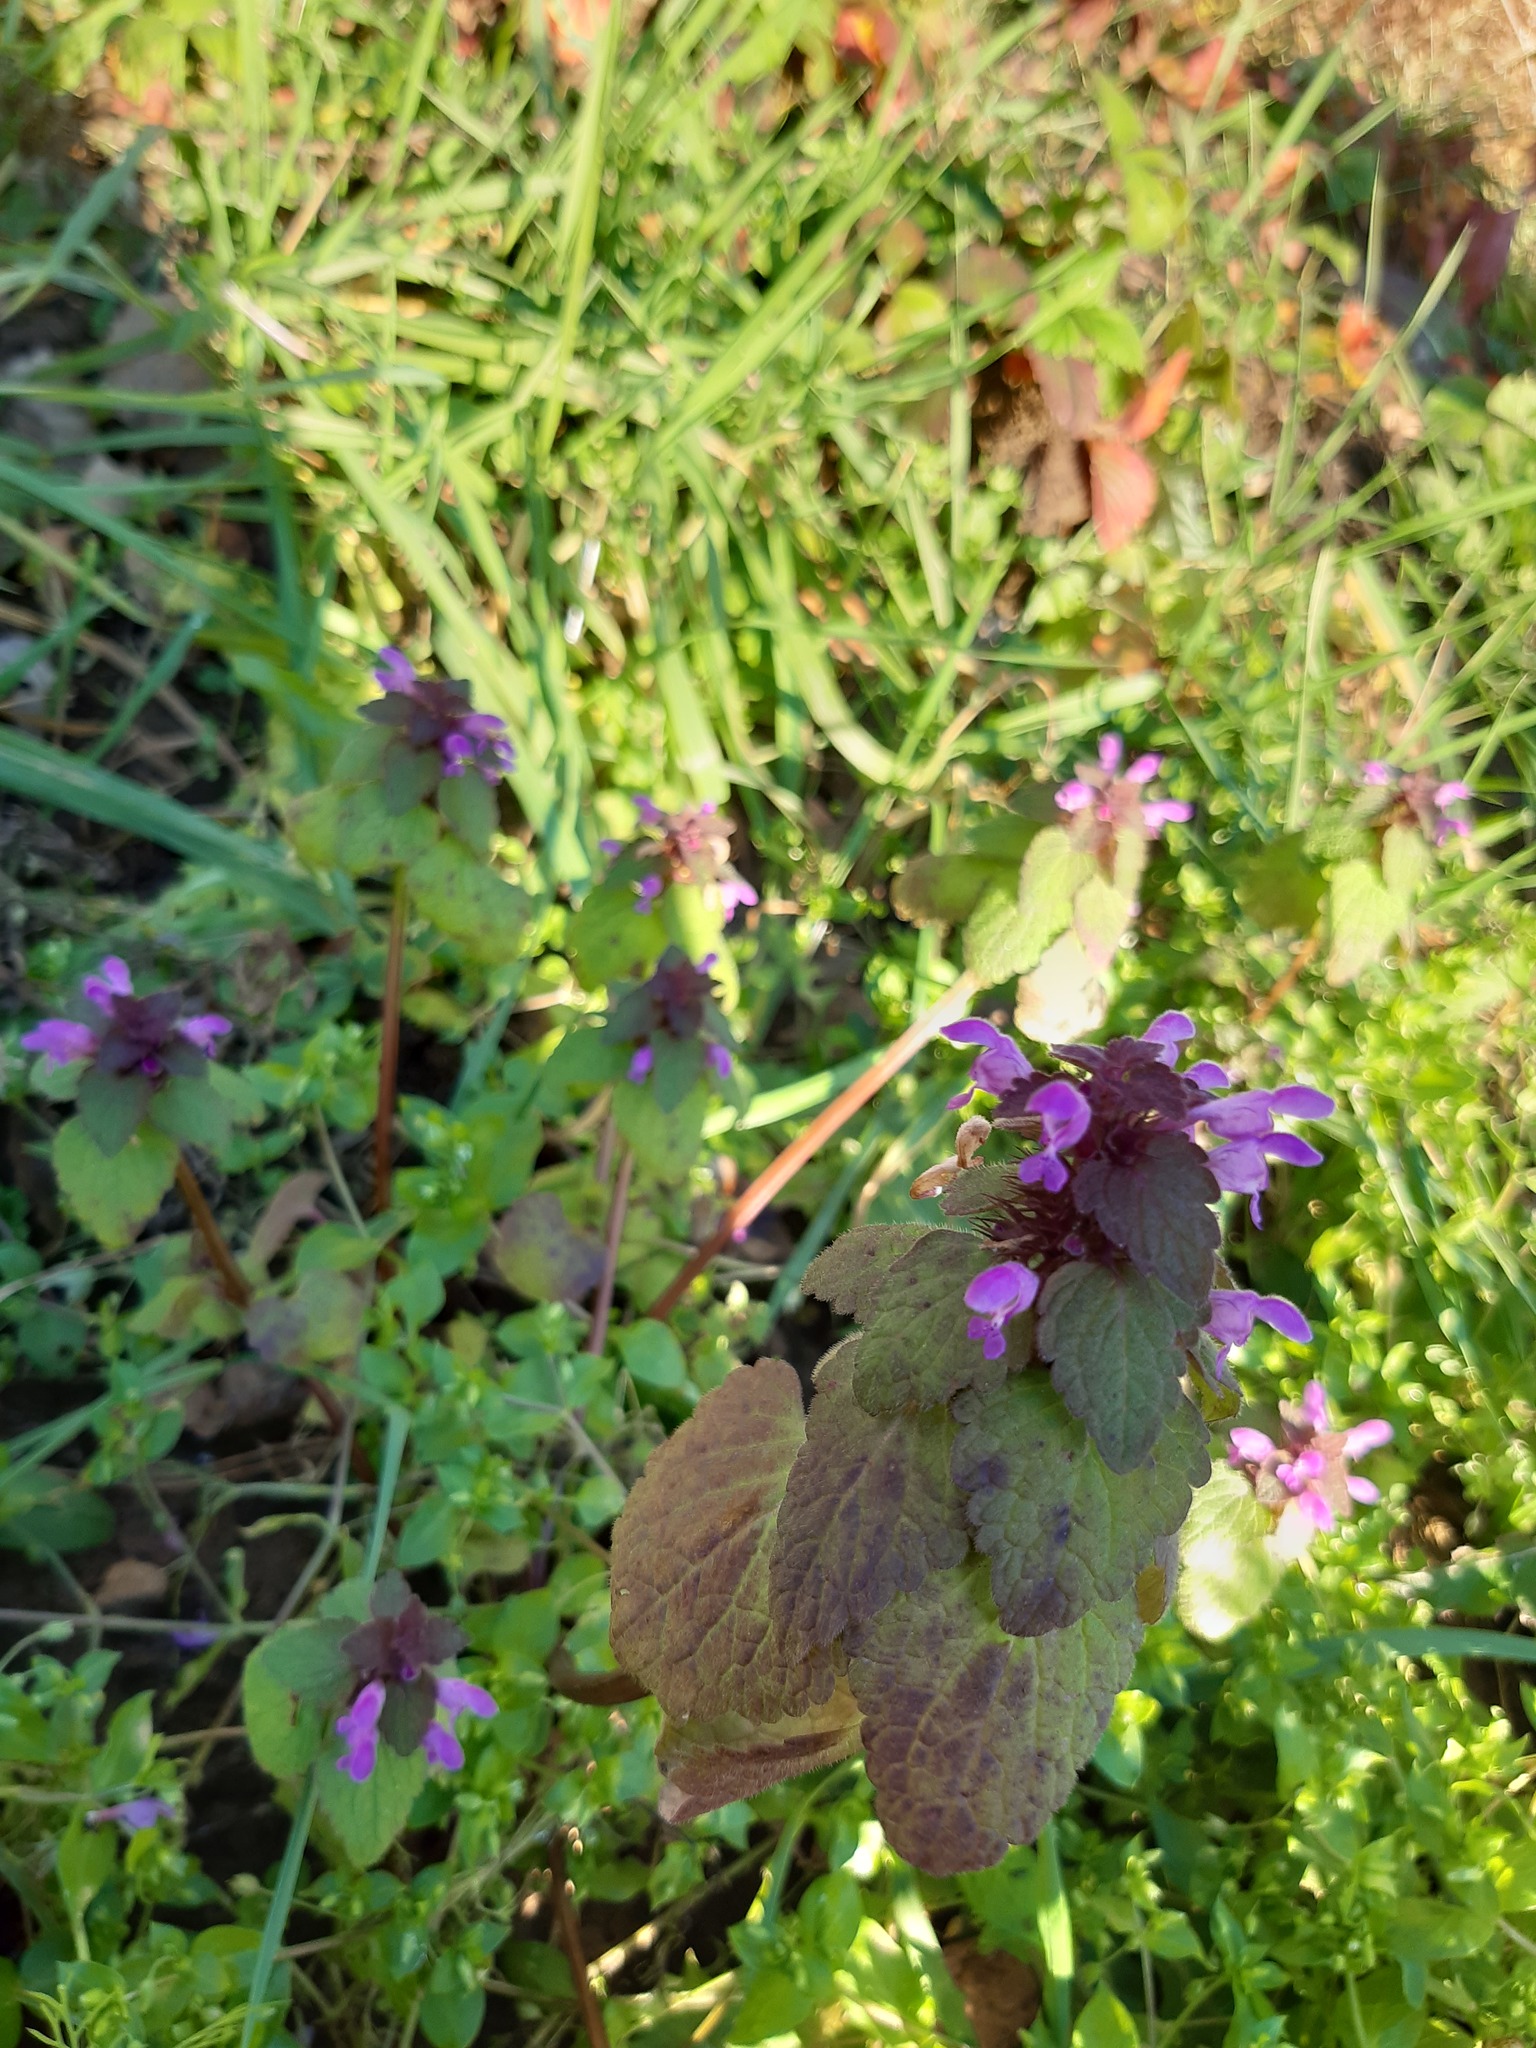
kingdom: Plantae
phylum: Tracheophyta
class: Magnoliopsida
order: Lamiales
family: Lamiaceae
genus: Lamium
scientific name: Lamium purpureum
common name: Red dead-nettle
